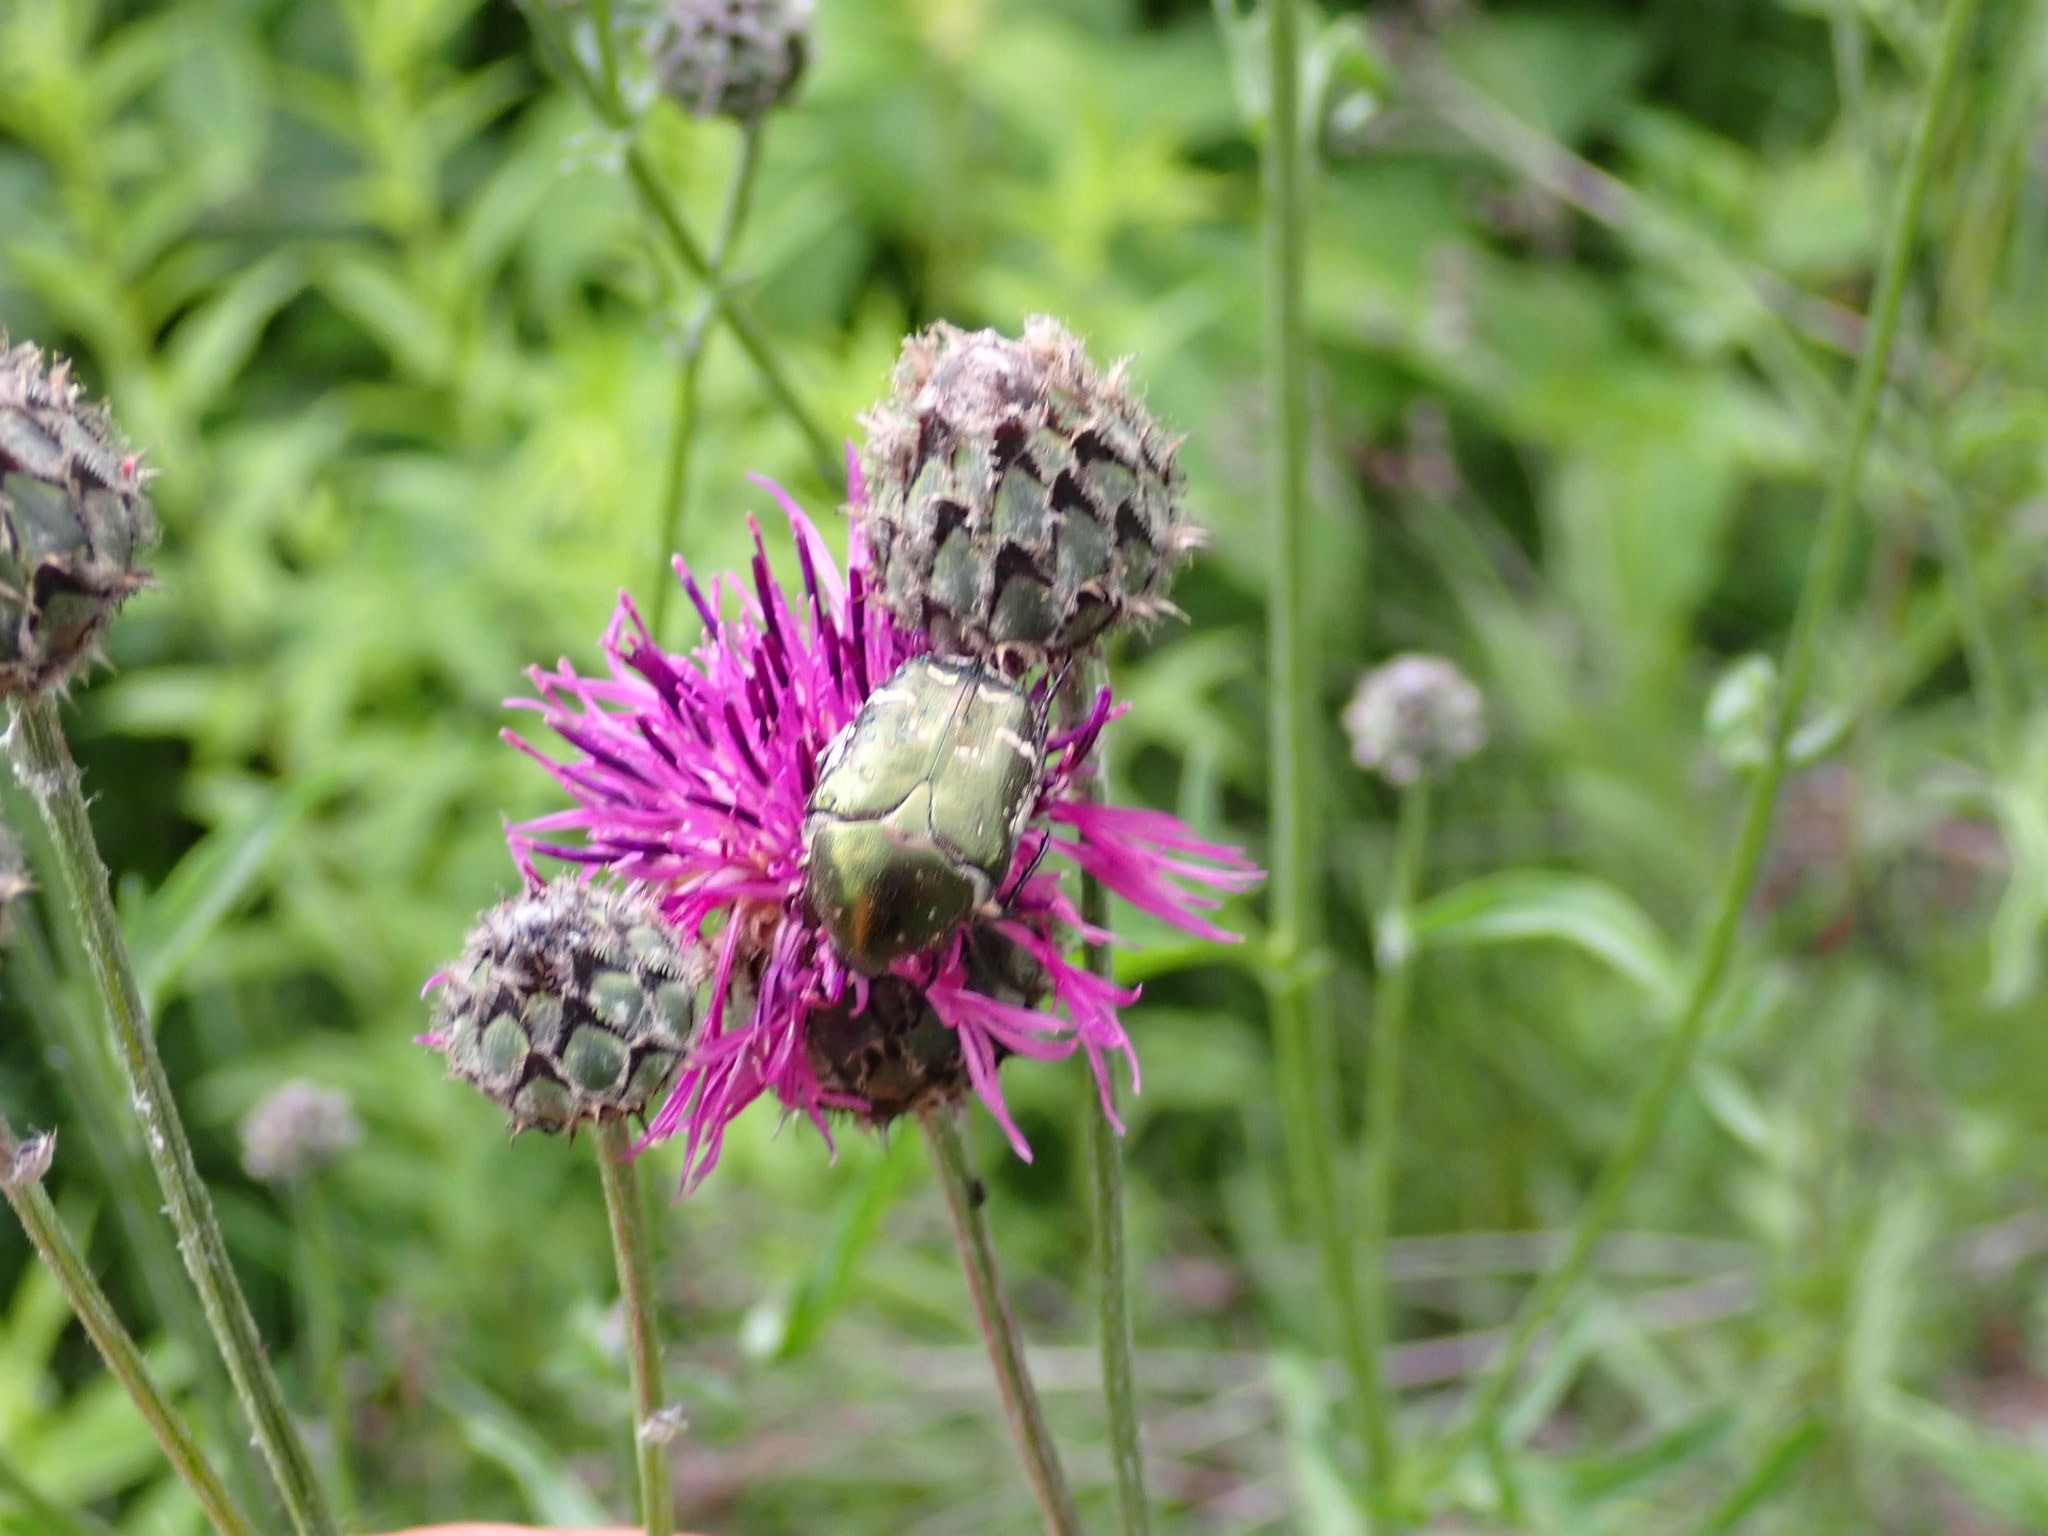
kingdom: Animalia
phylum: Arthropoda
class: Insecta
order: Coleoptera
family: Scarabaeidae
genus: Protaetia
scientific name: Protaetia cuprea
